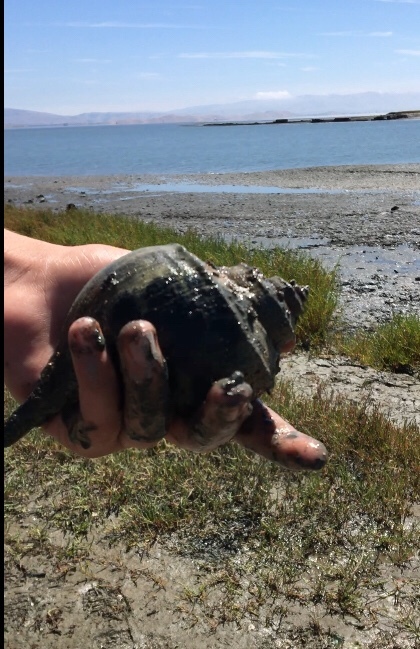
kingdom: Animalia
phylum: Mollusca
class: Gastropoda
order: Neogastropoda
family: Busyconidae
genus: Busycotypus
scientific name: Busycotypus canaliculatus
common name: Channeled whelk
